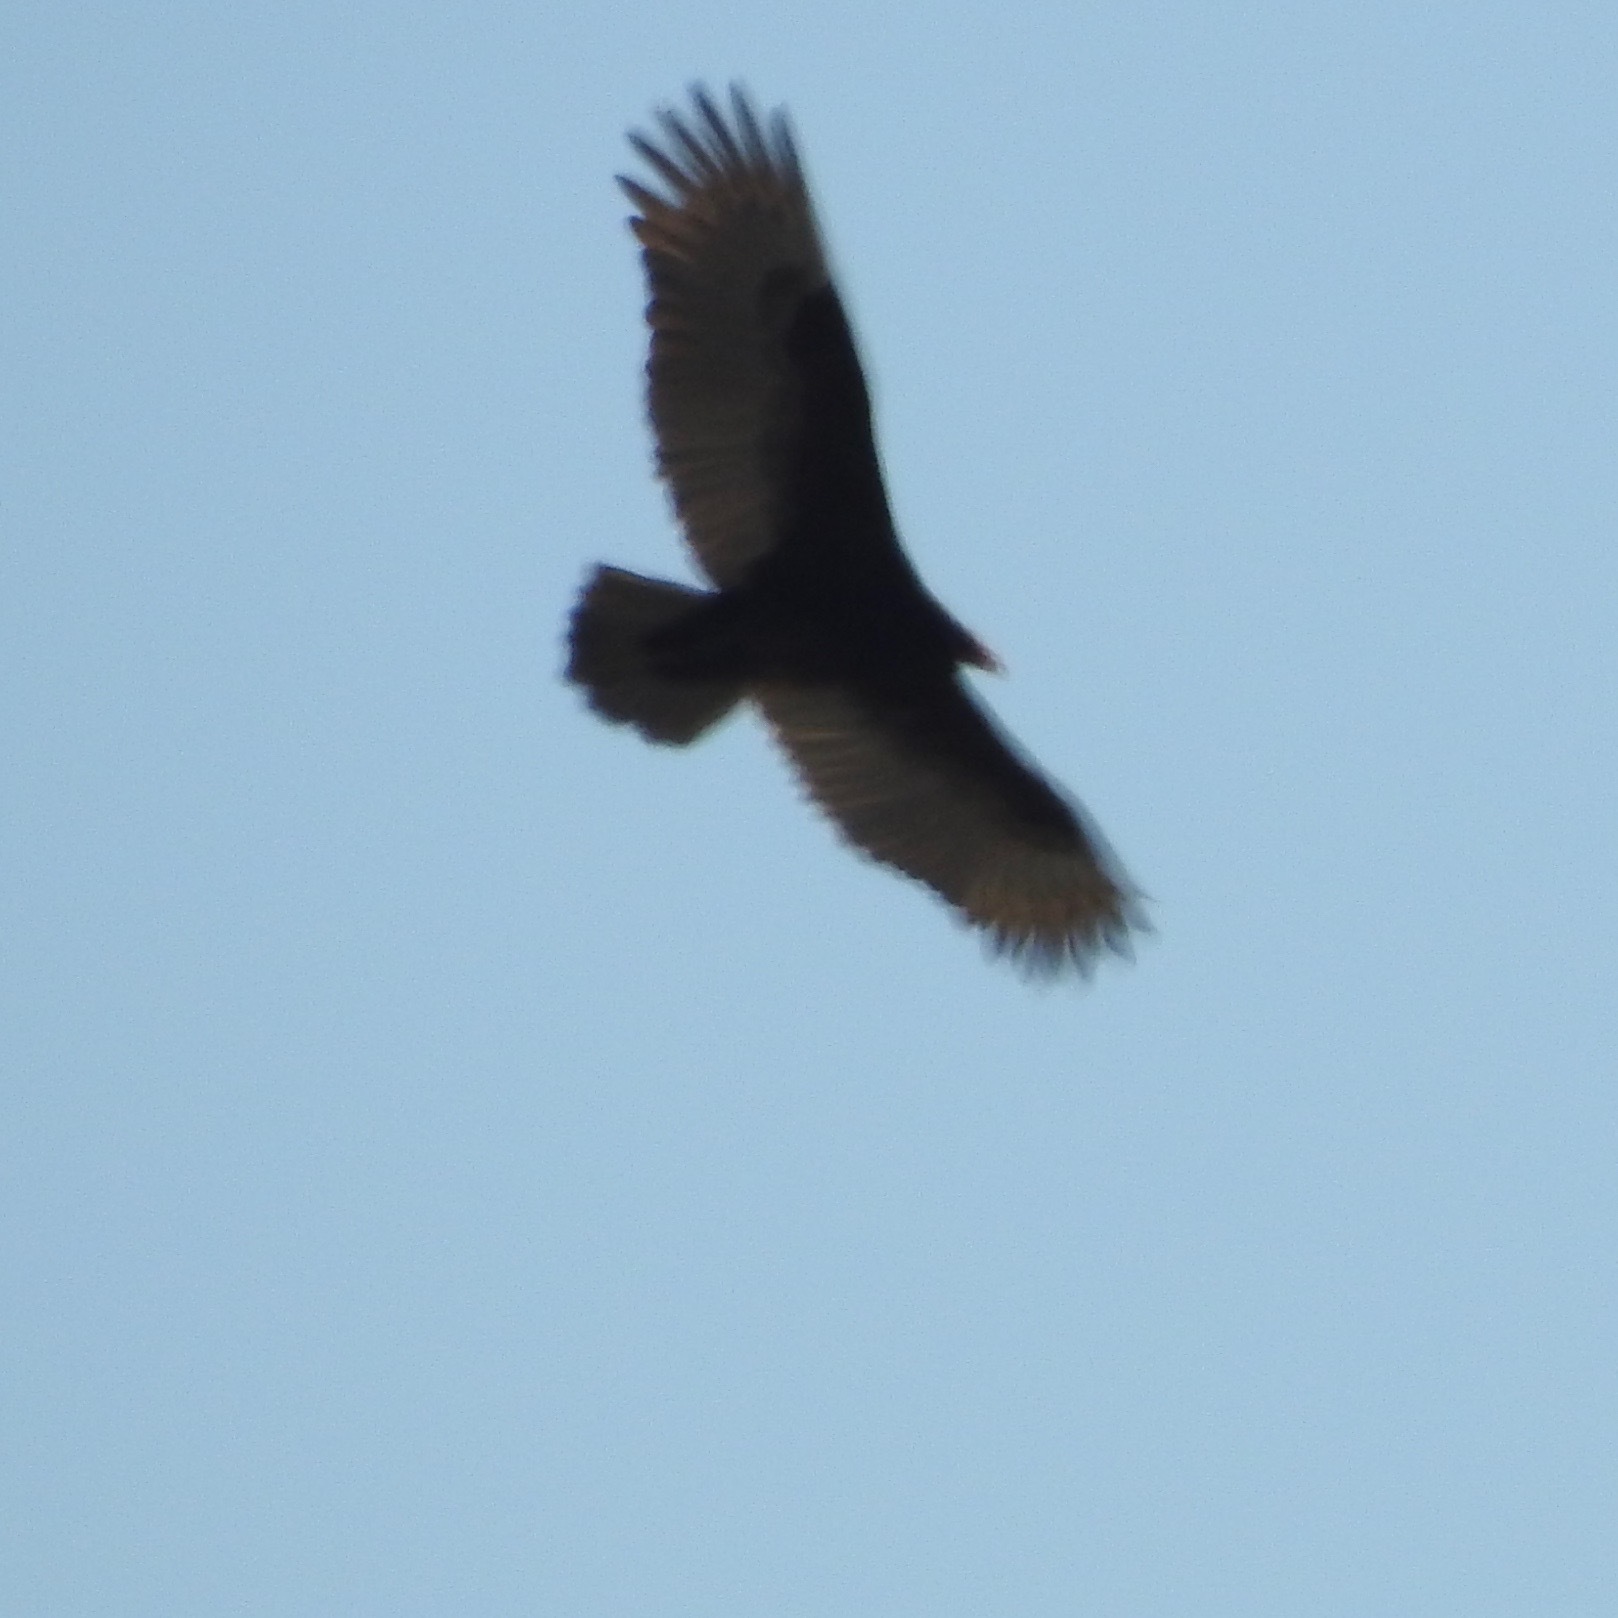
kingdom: Animalia
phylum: Chordata
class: Aves
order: Accipitriformes
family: Cathartidae
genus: Cathartes
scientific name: Cathartes aura
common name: Turkey vulture
